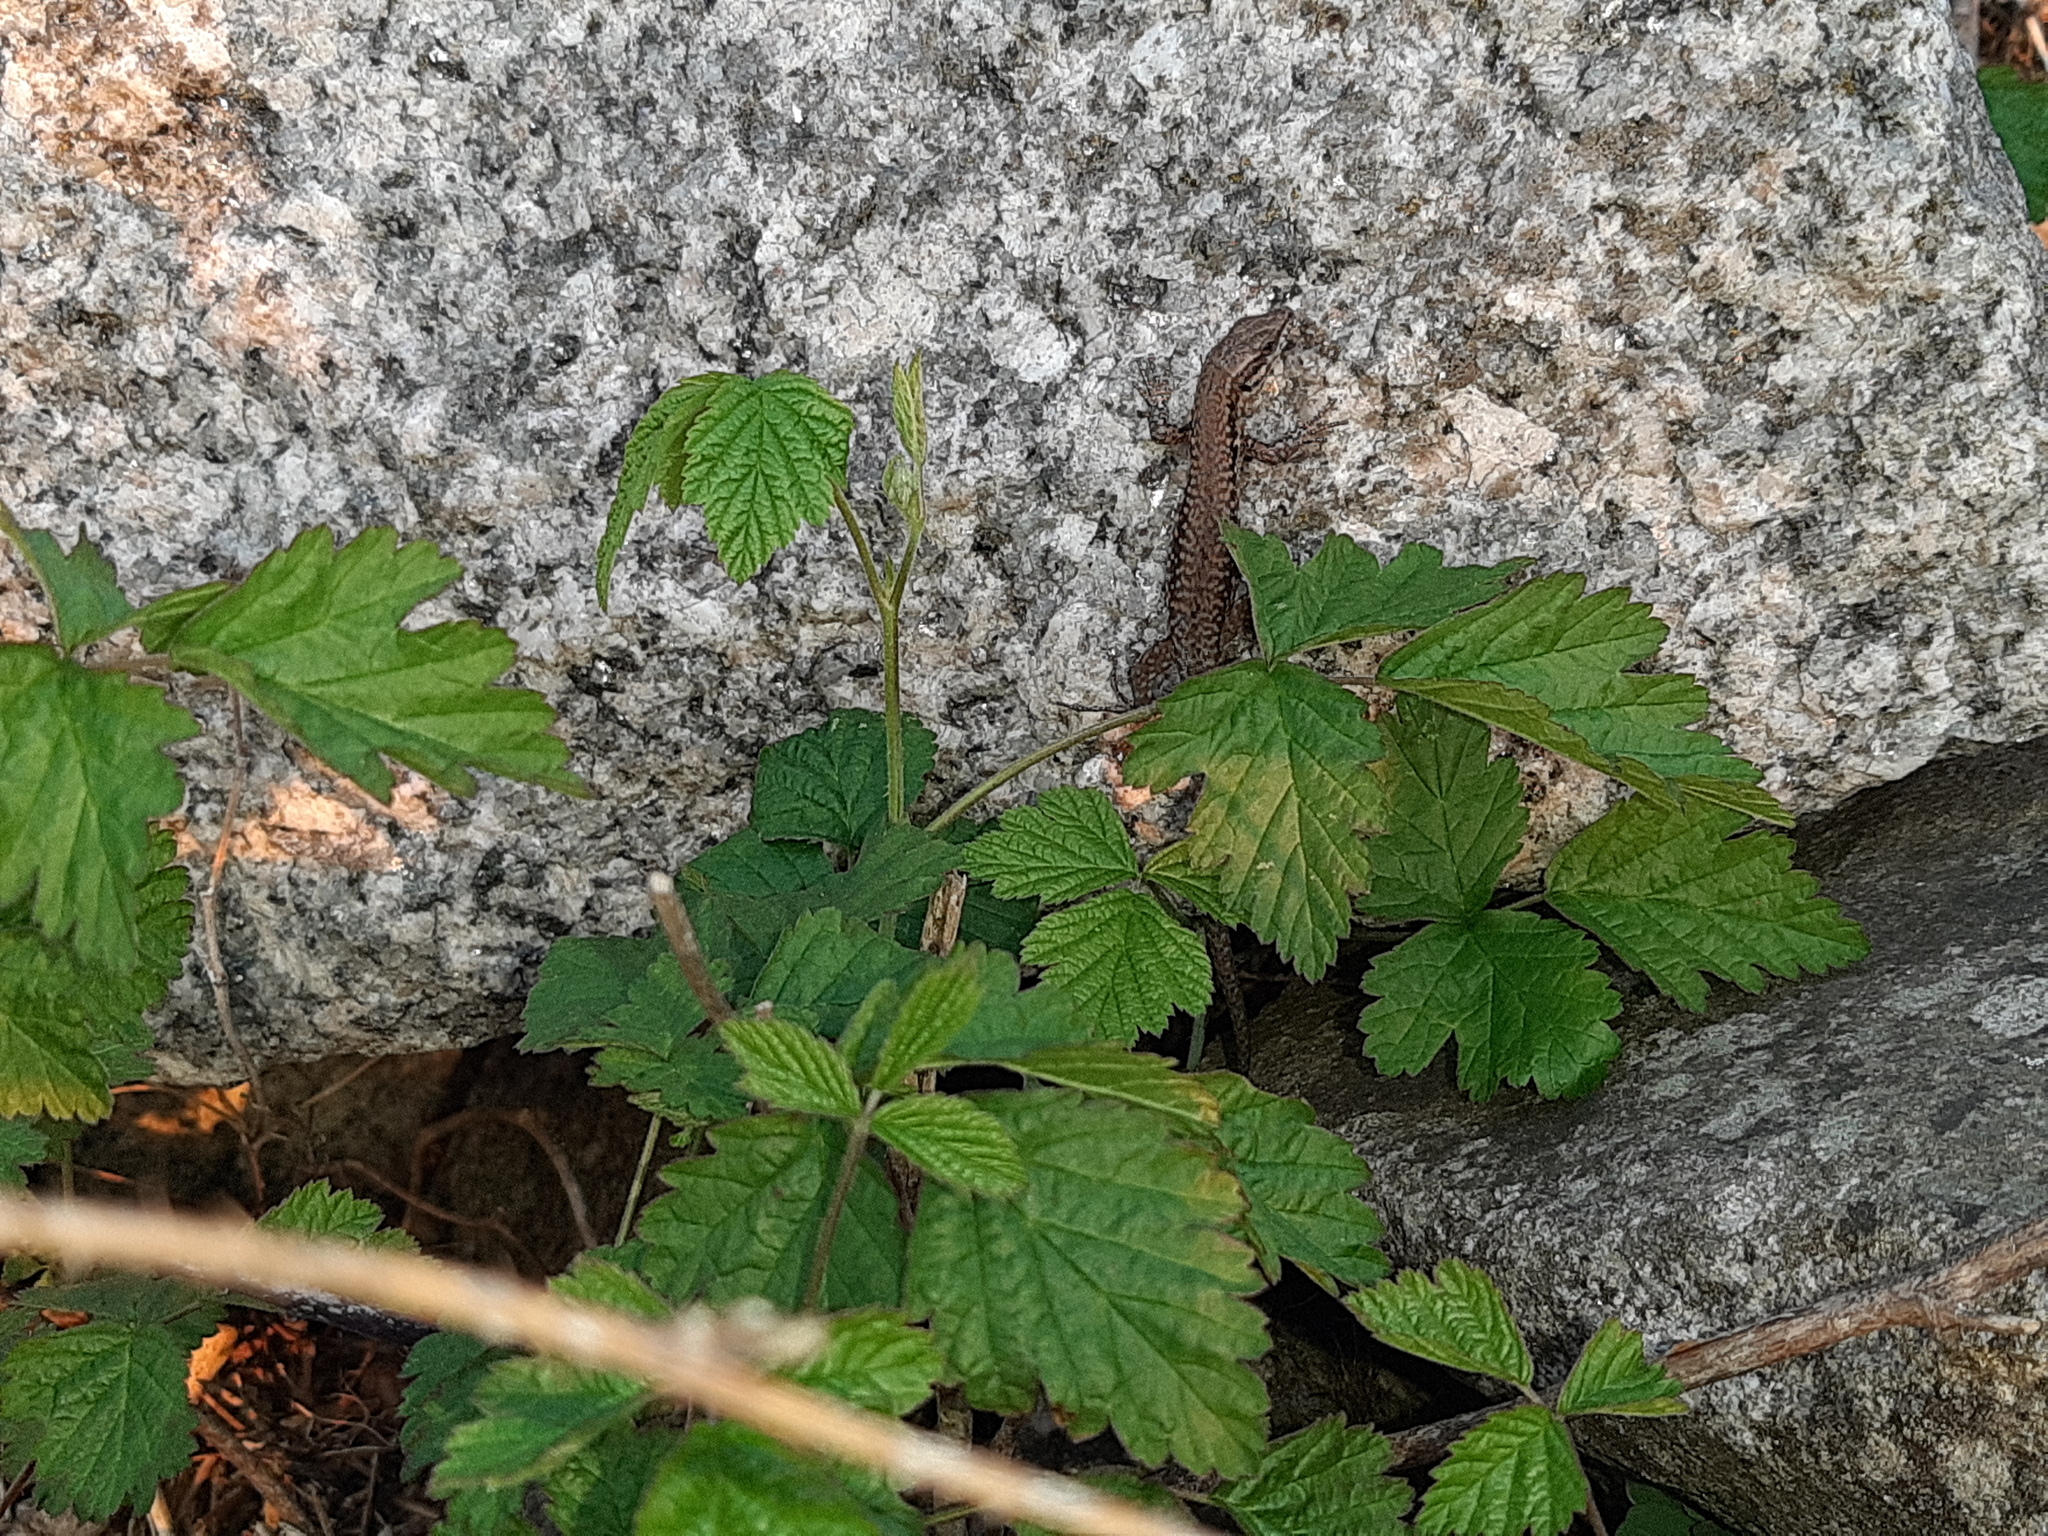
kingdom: Animalia
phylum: Chordata
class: Squamata
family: Lacertidae
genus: Podarcis
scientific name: Podarcis muralis
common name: Common wall lizard
